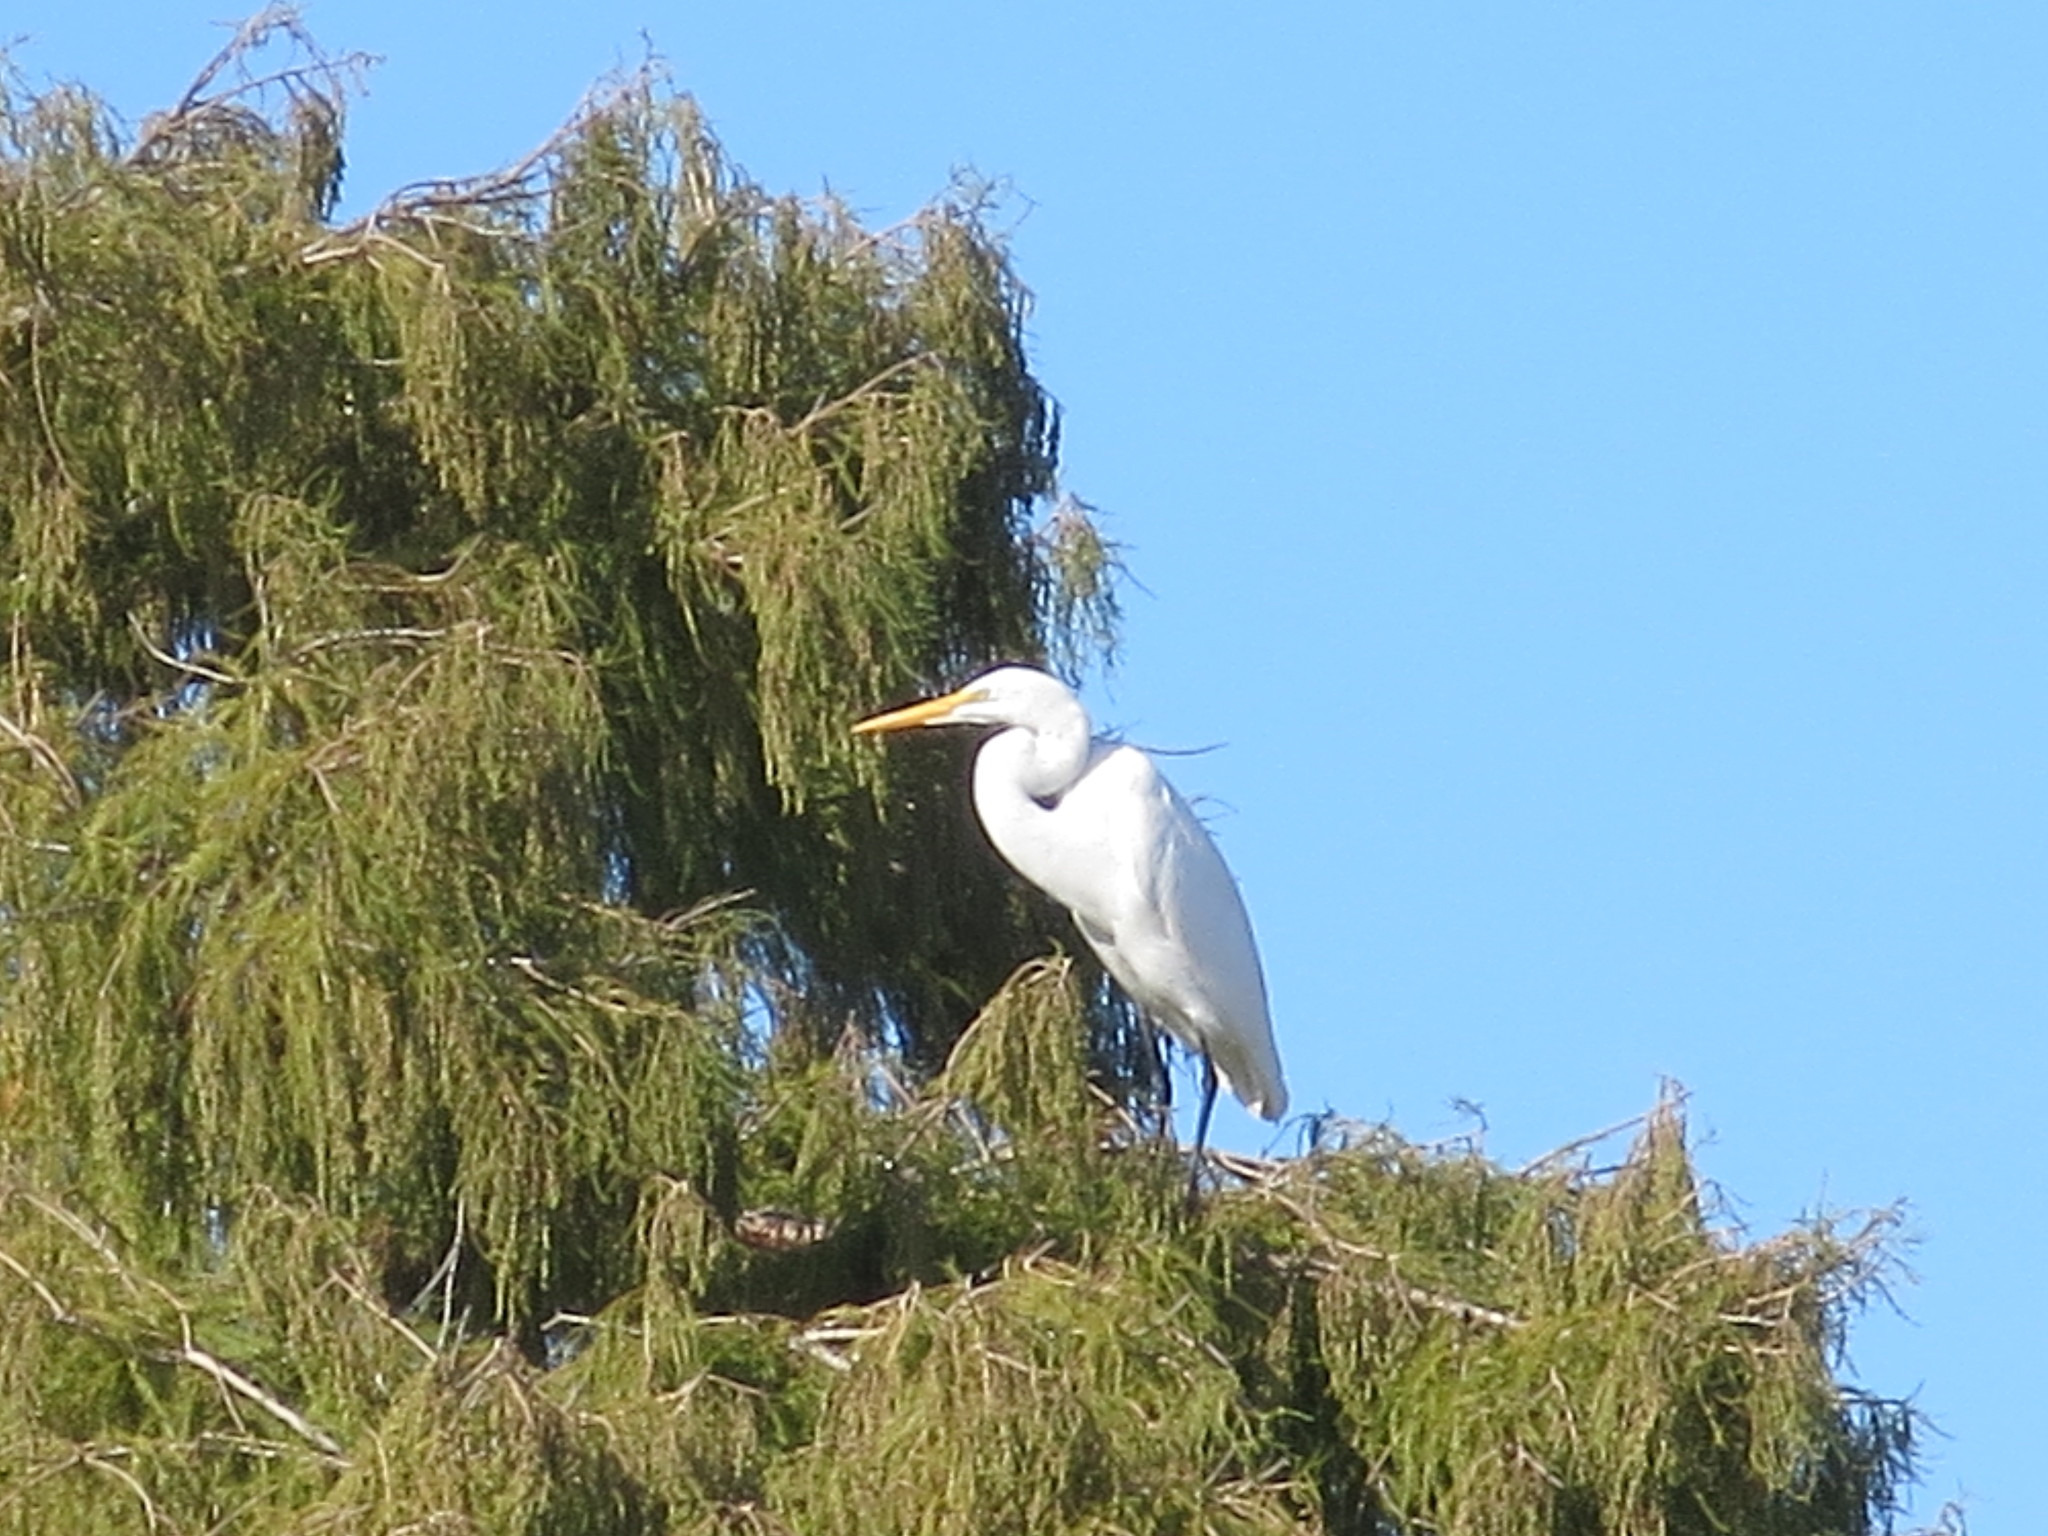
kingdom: Animalia
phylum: Chordata
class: Aves
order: Pelecaniformes
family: Ardeidae
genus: Ardea
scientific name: Ardea alba
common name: Great egret
